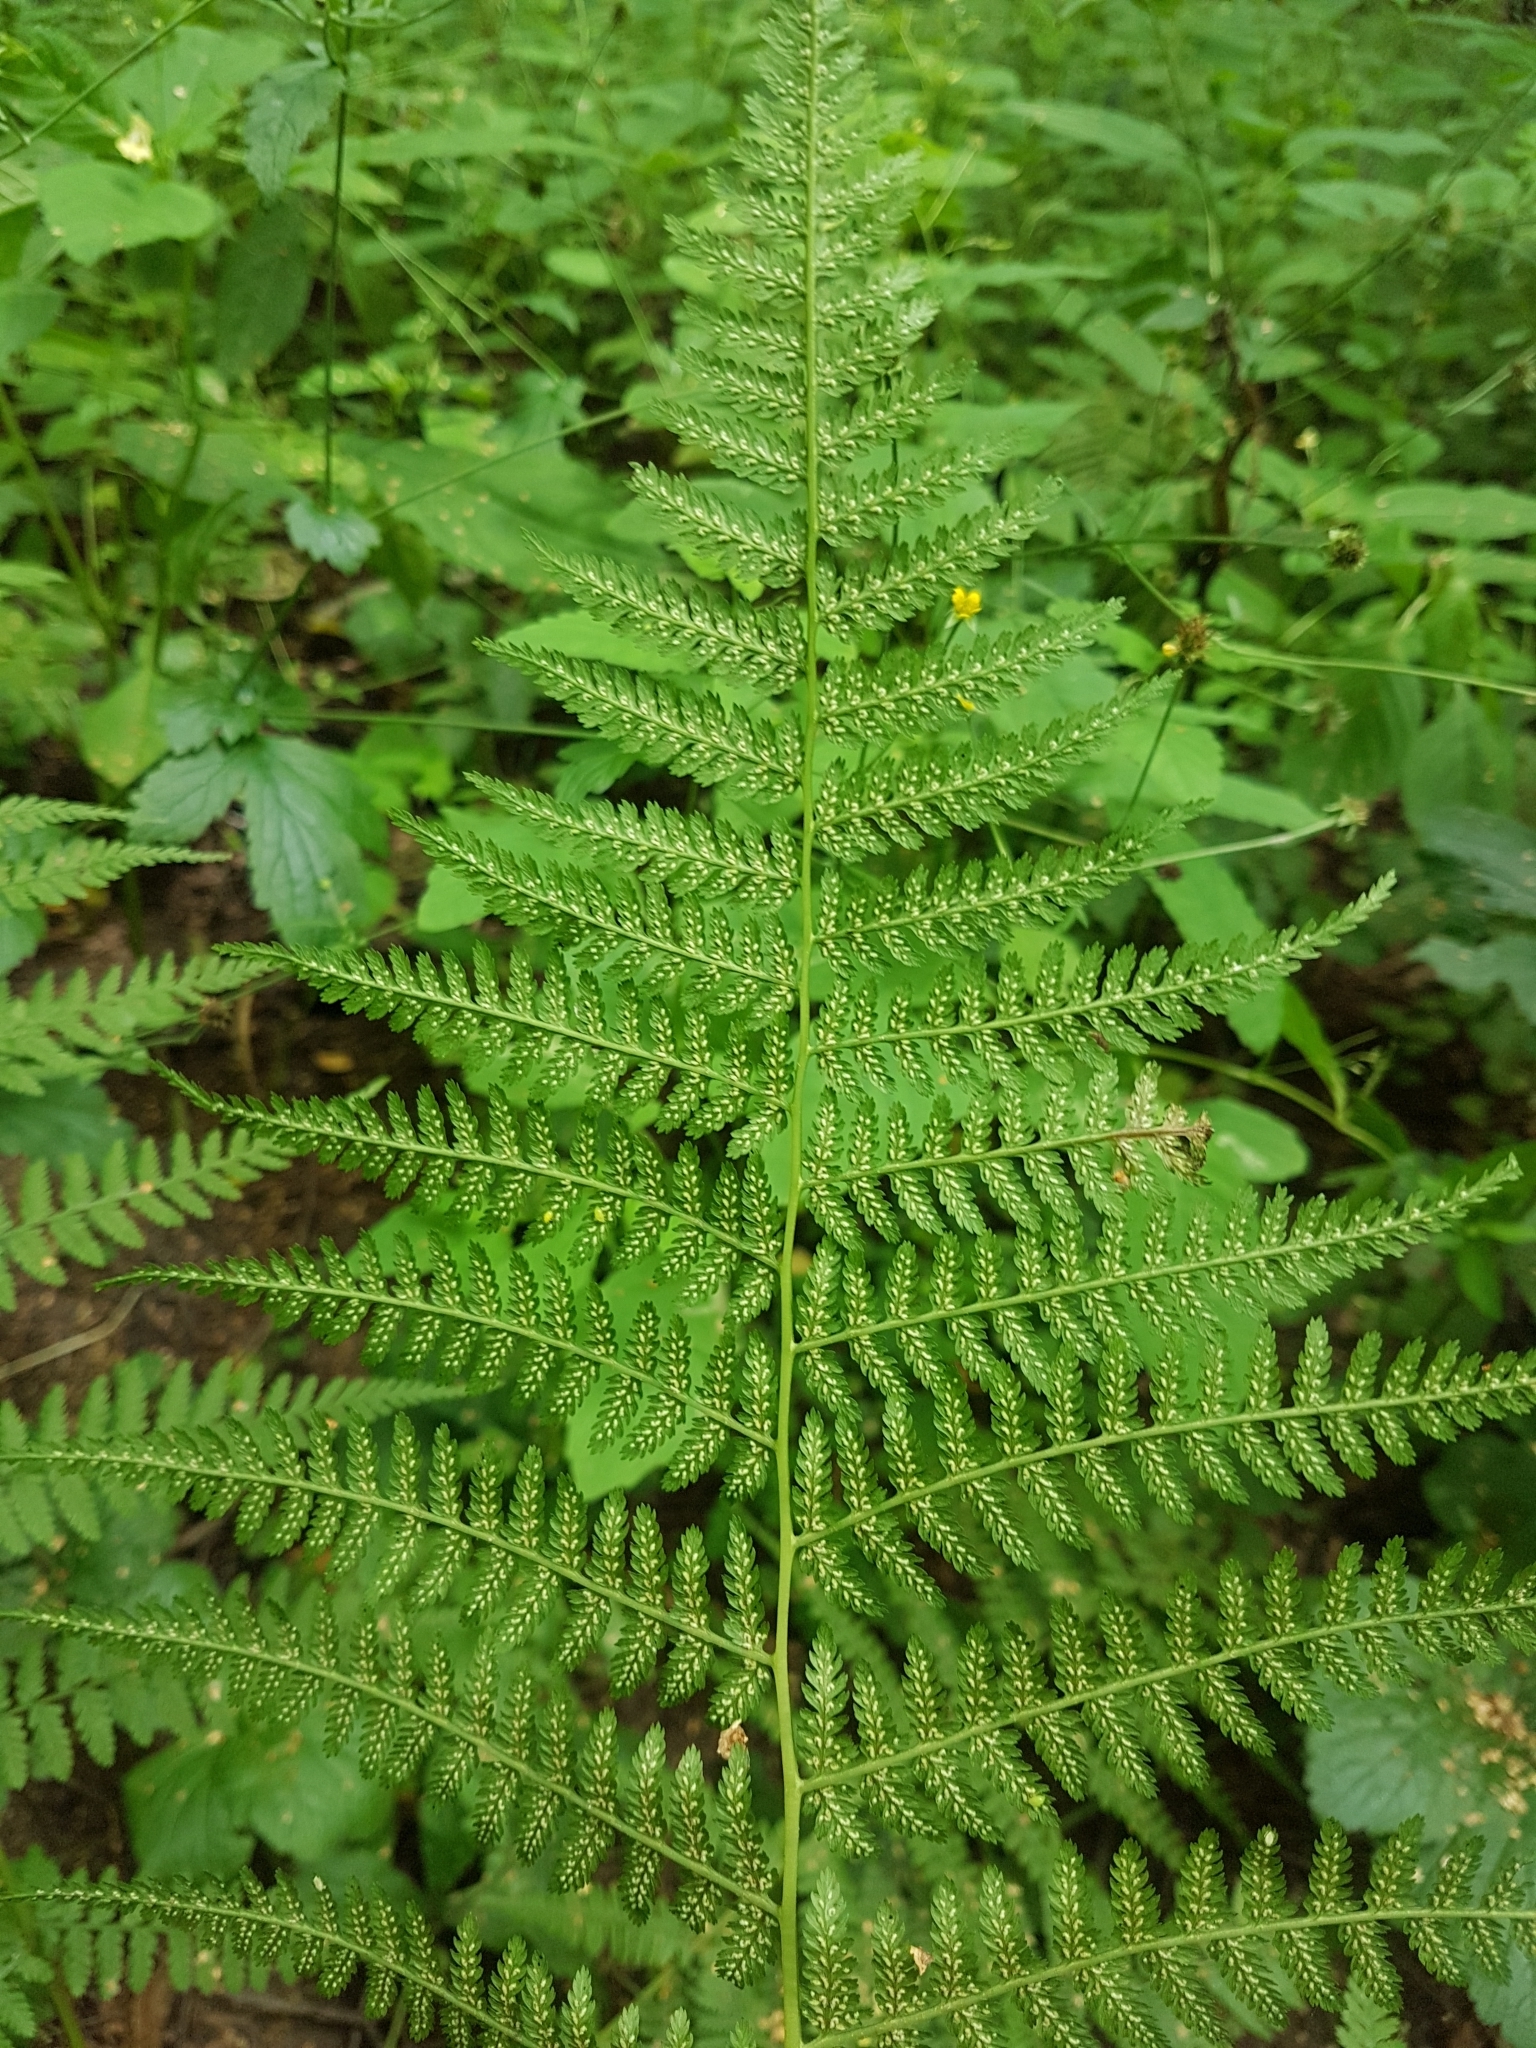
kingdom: Plantae
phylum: Tracheophyta
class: Polypodiopsida
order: Polypodiales
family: Athyriaceae
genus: Athyrium
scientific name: Athyrium filix-femina
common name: Lady fern
